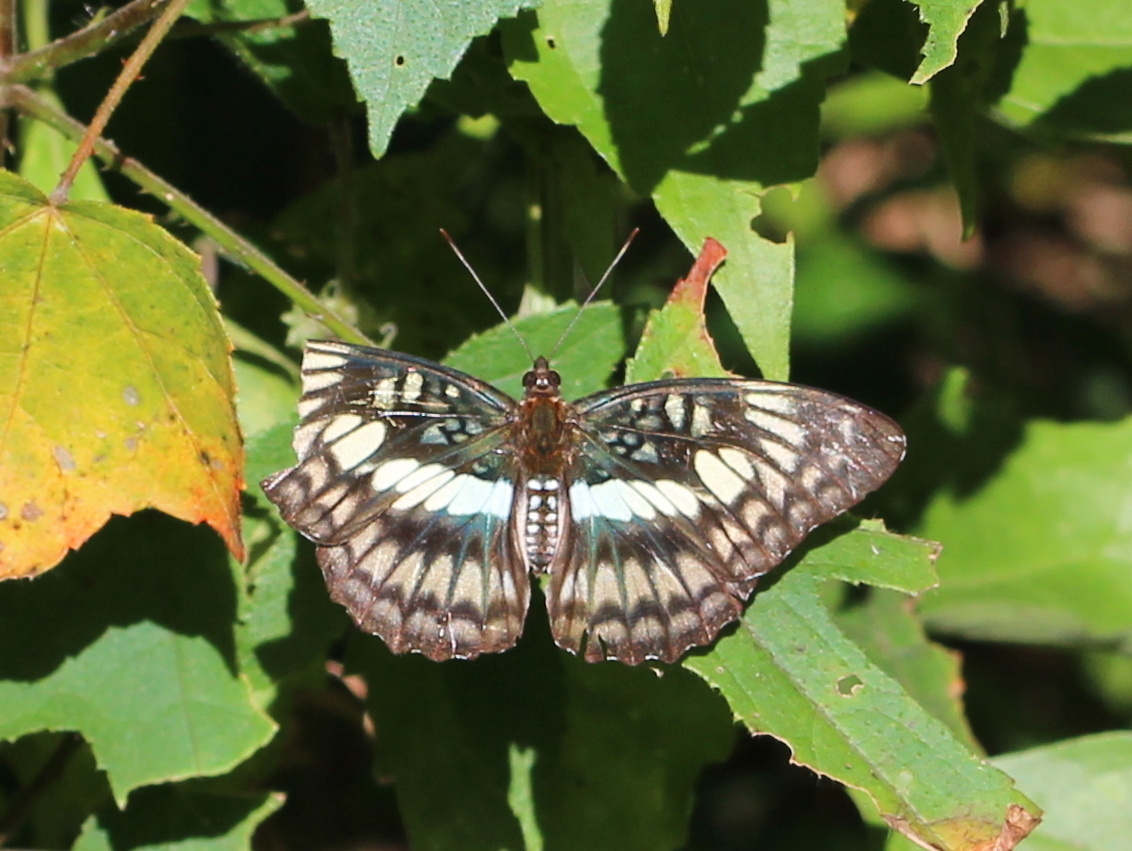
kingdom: Animalia
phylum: Arthropoda
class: Insecta
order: Lepidoptera
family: Nymphalidae
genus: Parathyma
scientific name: Parathyma ranga
